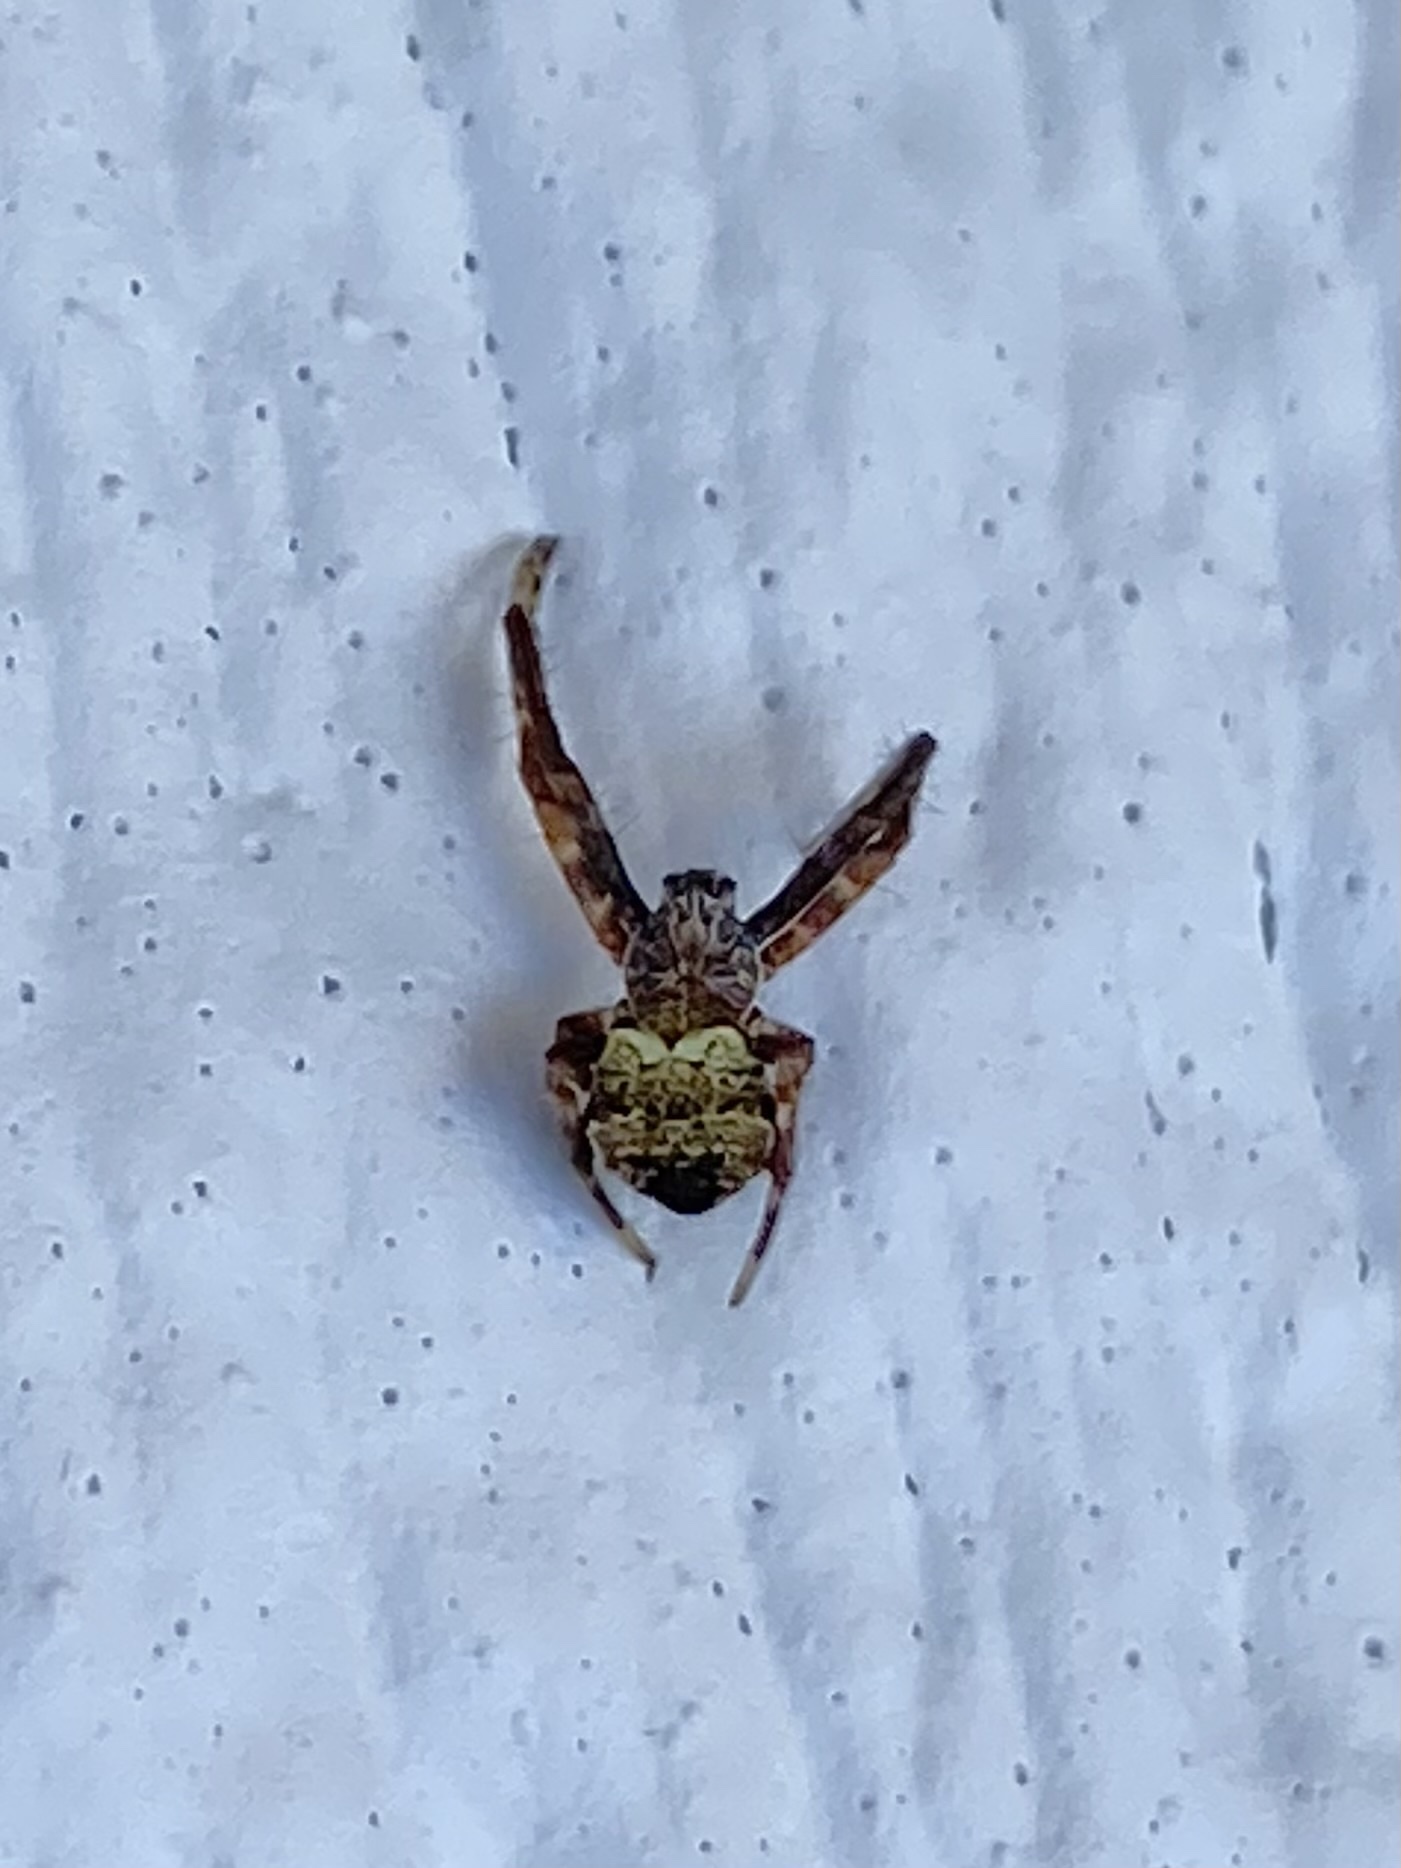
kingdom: Animalia
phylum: Arthropoda
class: Arachnida
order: Araneae
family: Araneidae
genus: Gea
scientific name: Gea heptagon
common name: Orb weavers
